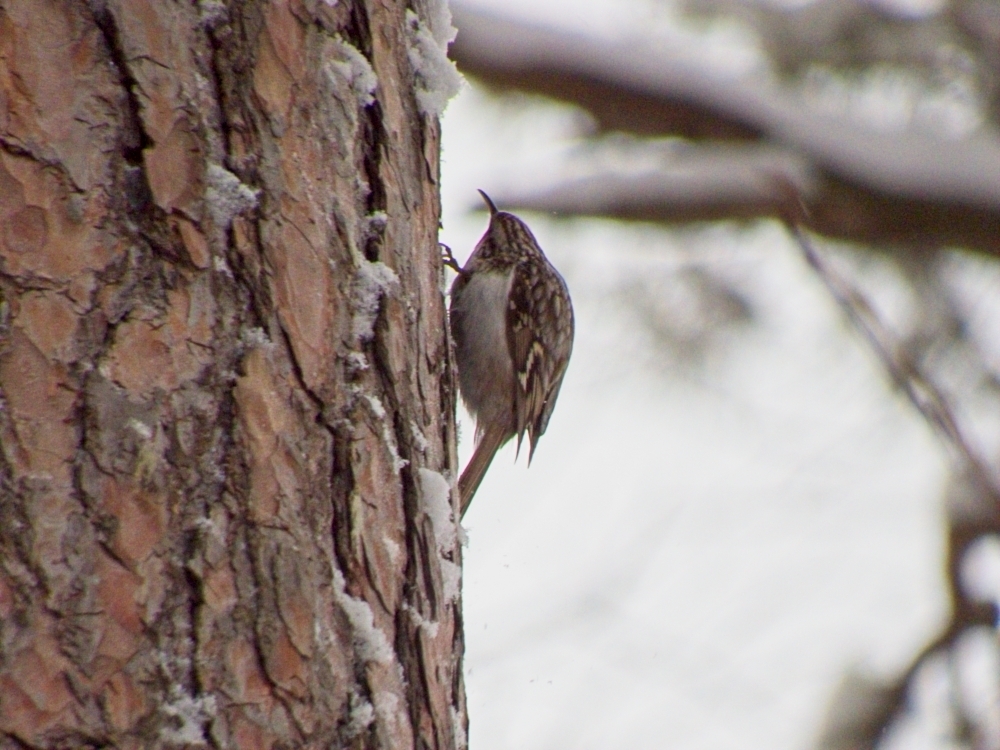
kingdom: Animalia
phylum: Chordata
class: Aves
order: Passeriformes
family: Certhiidae
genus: Certhia
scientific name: Certhia familiaris
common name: Eurasian treecreeper
